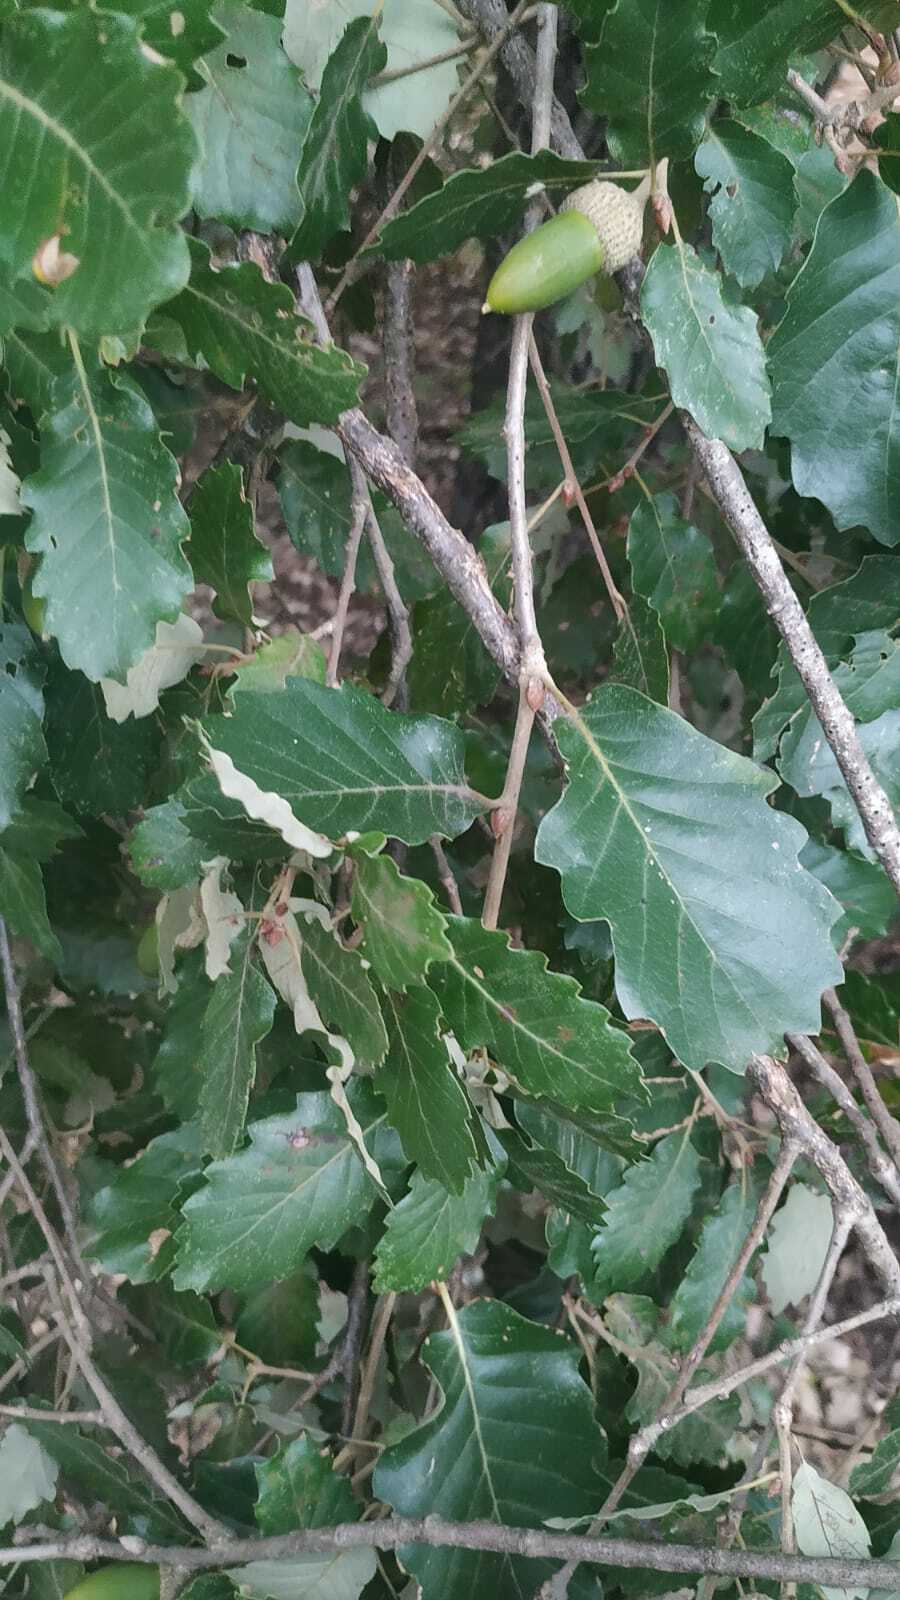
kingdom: Plantae
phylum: Tracheophyta
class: Magnoliopsida
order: Fagales
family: Fagaceae
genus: Quercus
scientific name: Quercus faginea
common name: Gall oak tree
